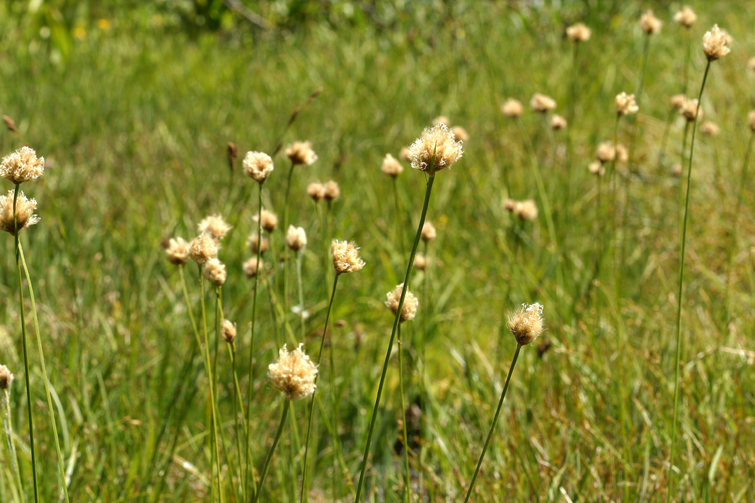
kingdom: Plantae
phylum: Tracheophyta
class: Liliopsida
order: Poales
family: Cyperaceae
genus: Calliscirpus
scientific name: Calliscirpus brachythrix
